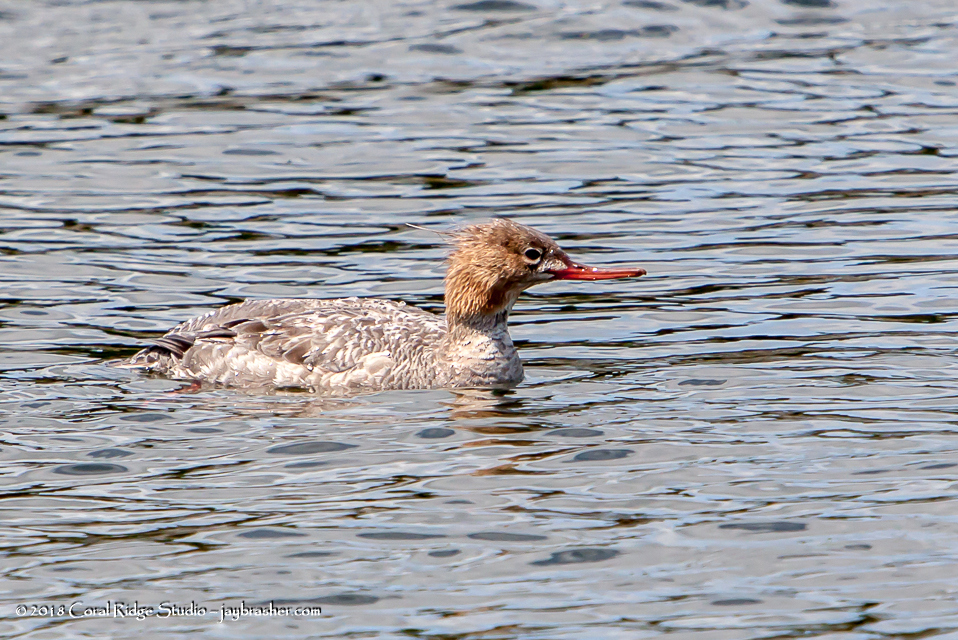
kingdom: Animalia
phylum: Chordata
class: Aves
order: Anseriformes
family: Anatidae
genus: Mergus
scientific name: Mergus serrator
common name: Red-breasted merganser
